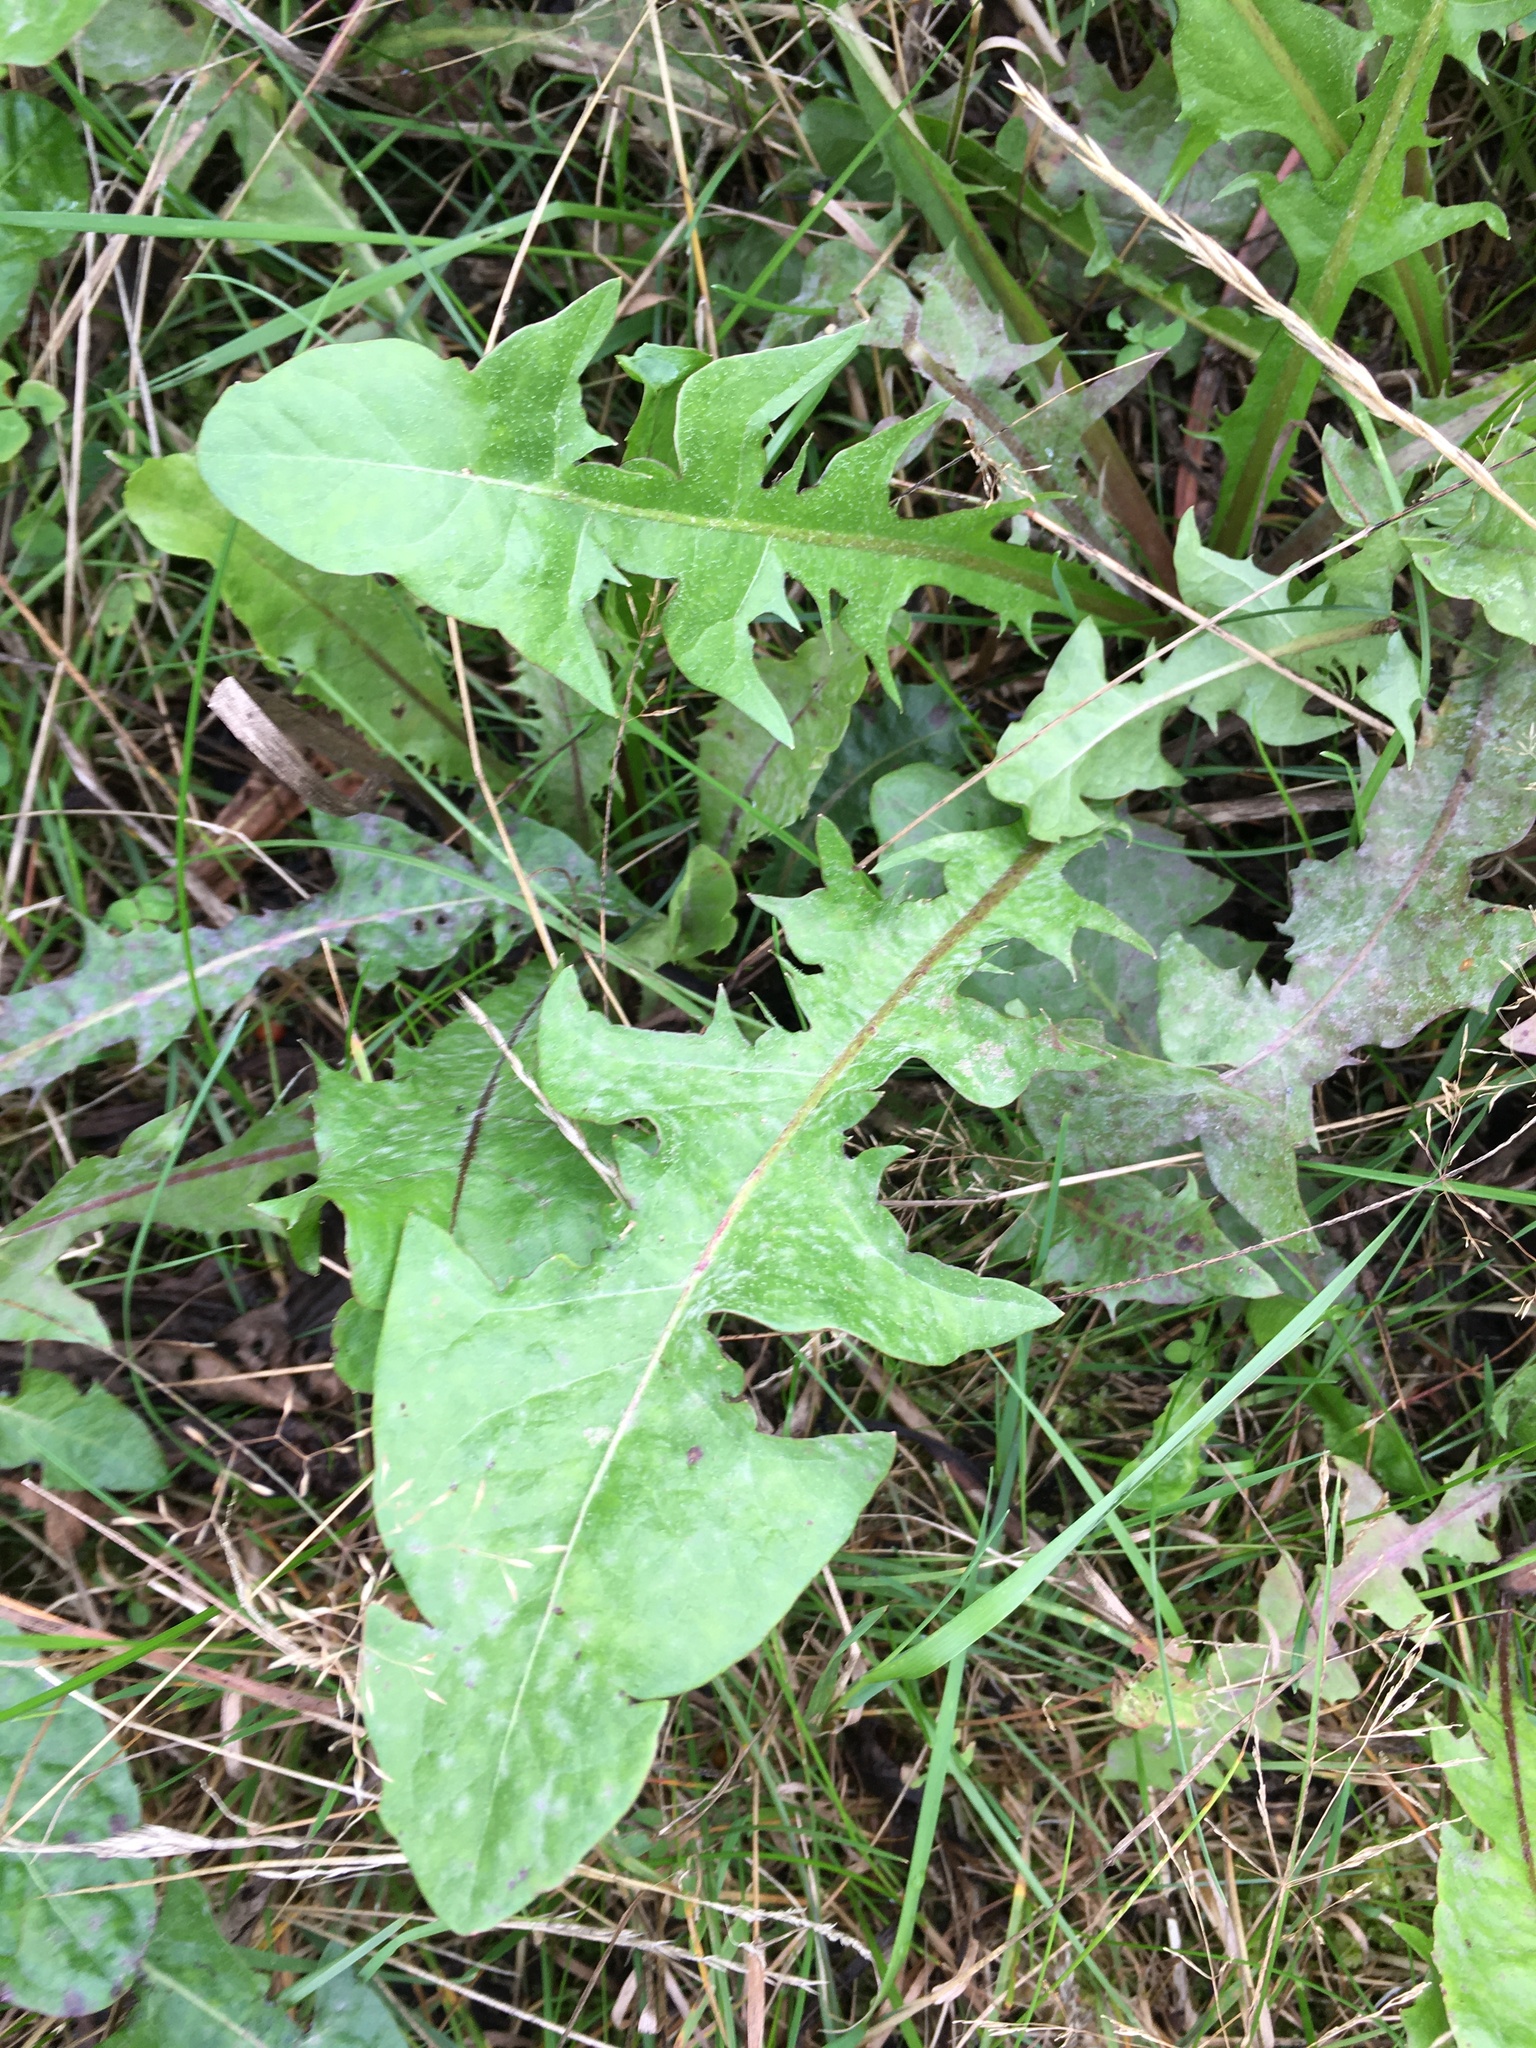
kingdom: Plantae
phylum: Tracheophyta
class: Magnoliopsida
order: Asterales
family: Asteraceae
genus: Taraxacum
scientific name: Taraxacum officinale
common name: Common dandelion
